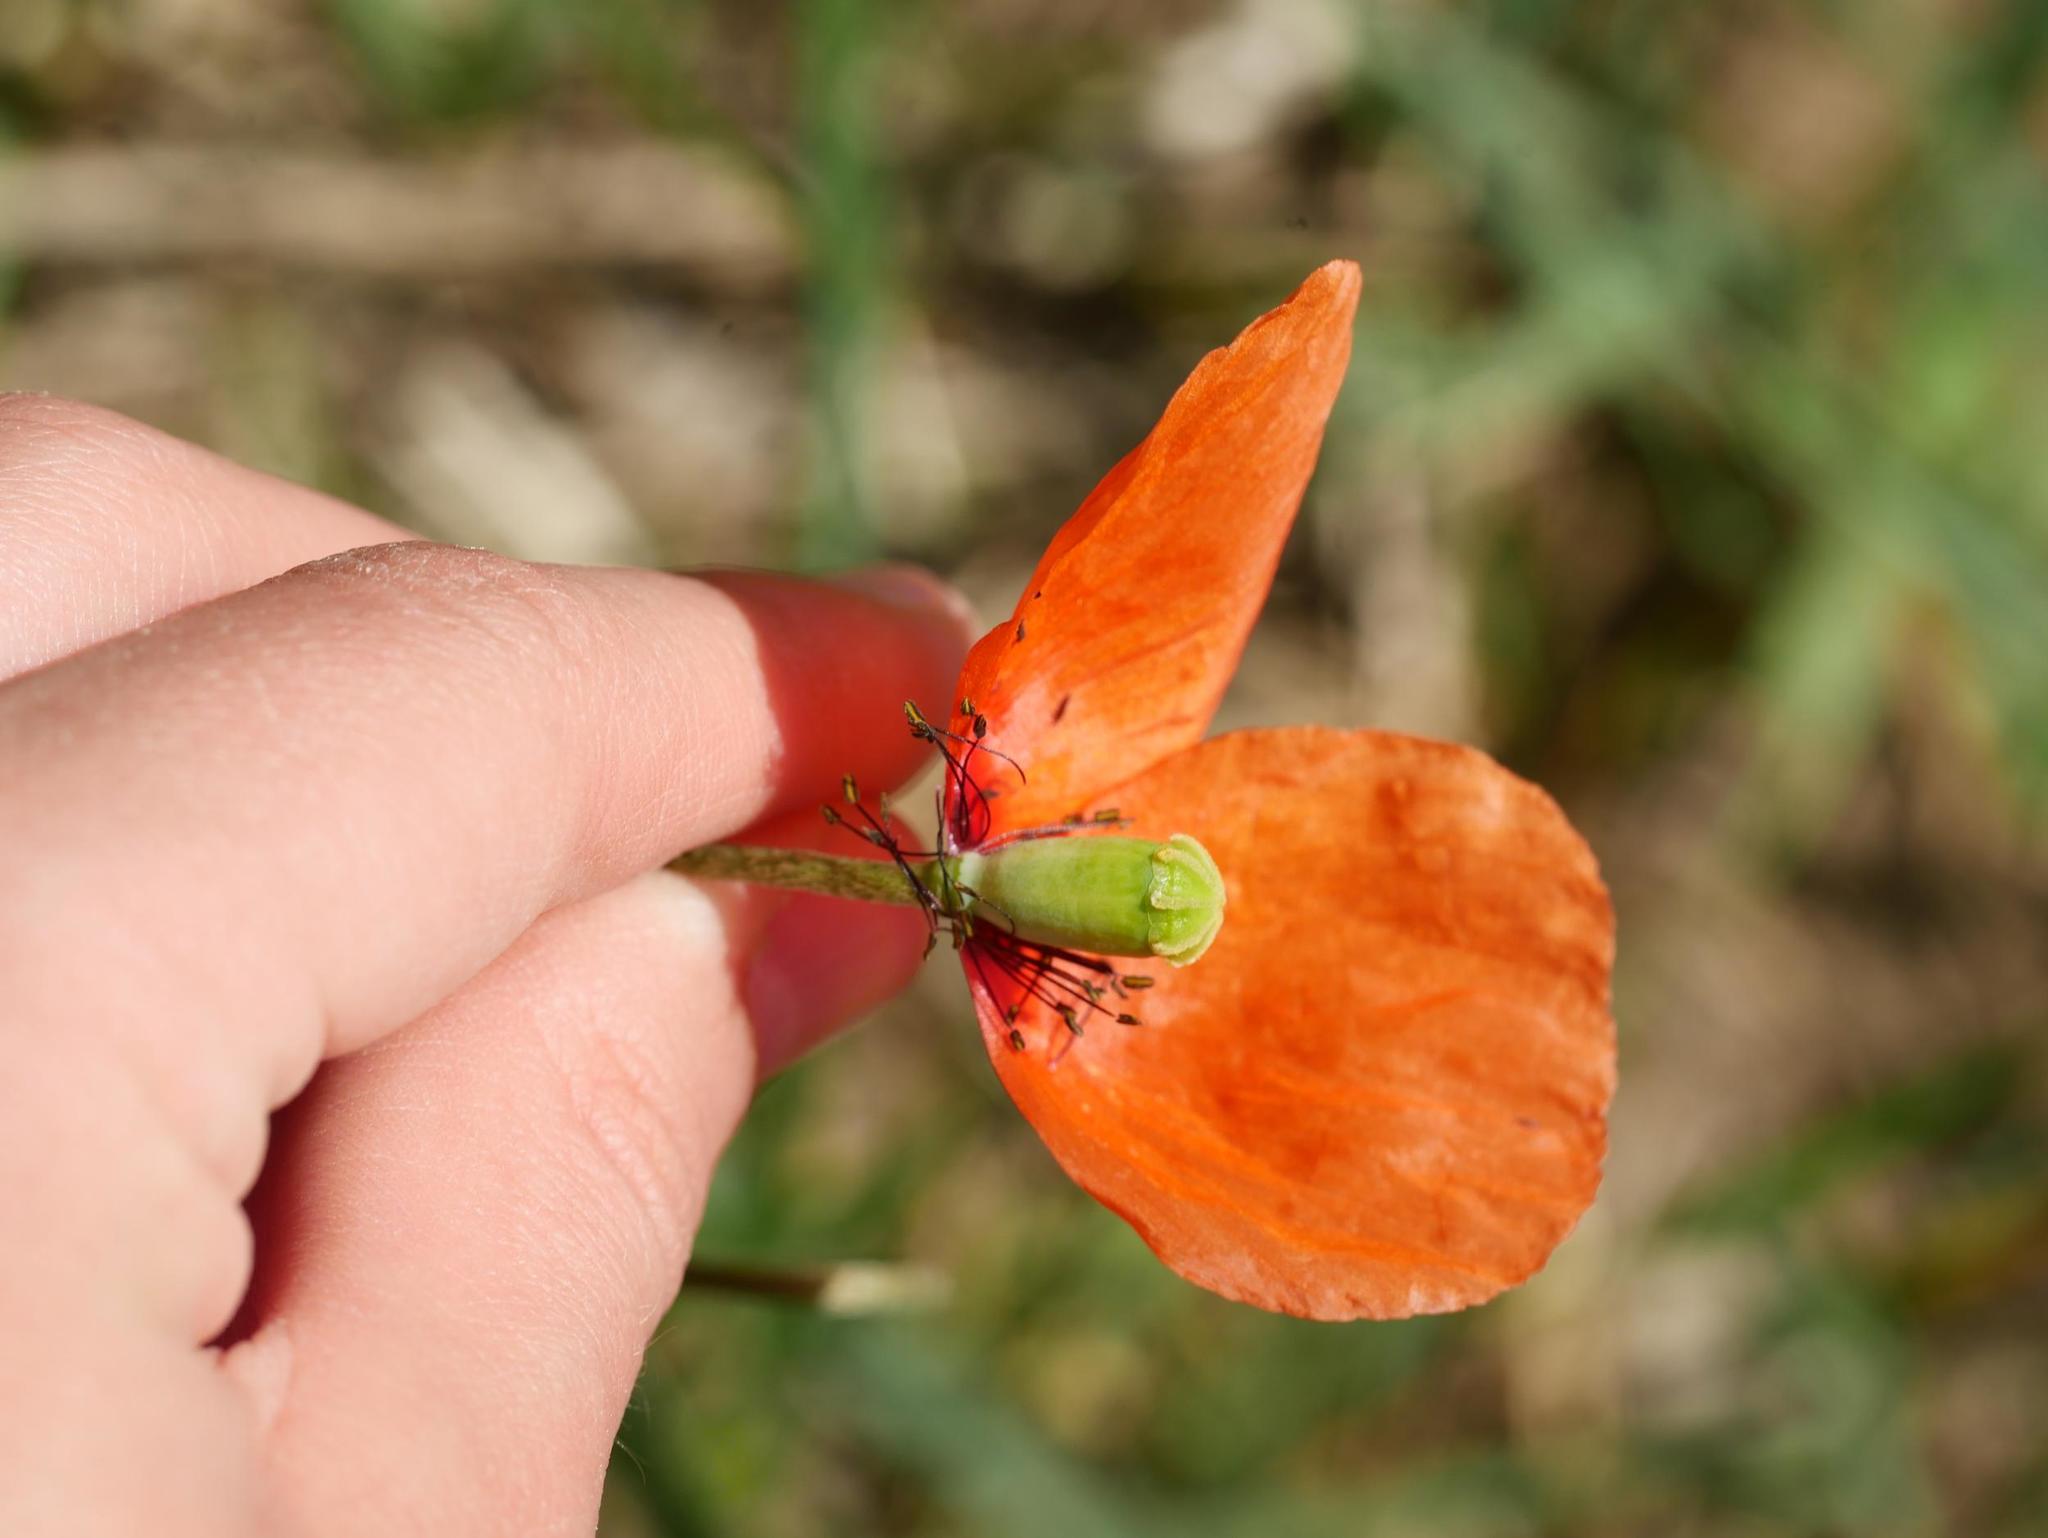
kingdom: Plantae
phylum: Tracheophyta
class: Magnoliopsida
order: Ranunculales
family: Papaveraceae
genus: Papaver
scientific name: Papaver dubium
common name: Long-headed poppy
